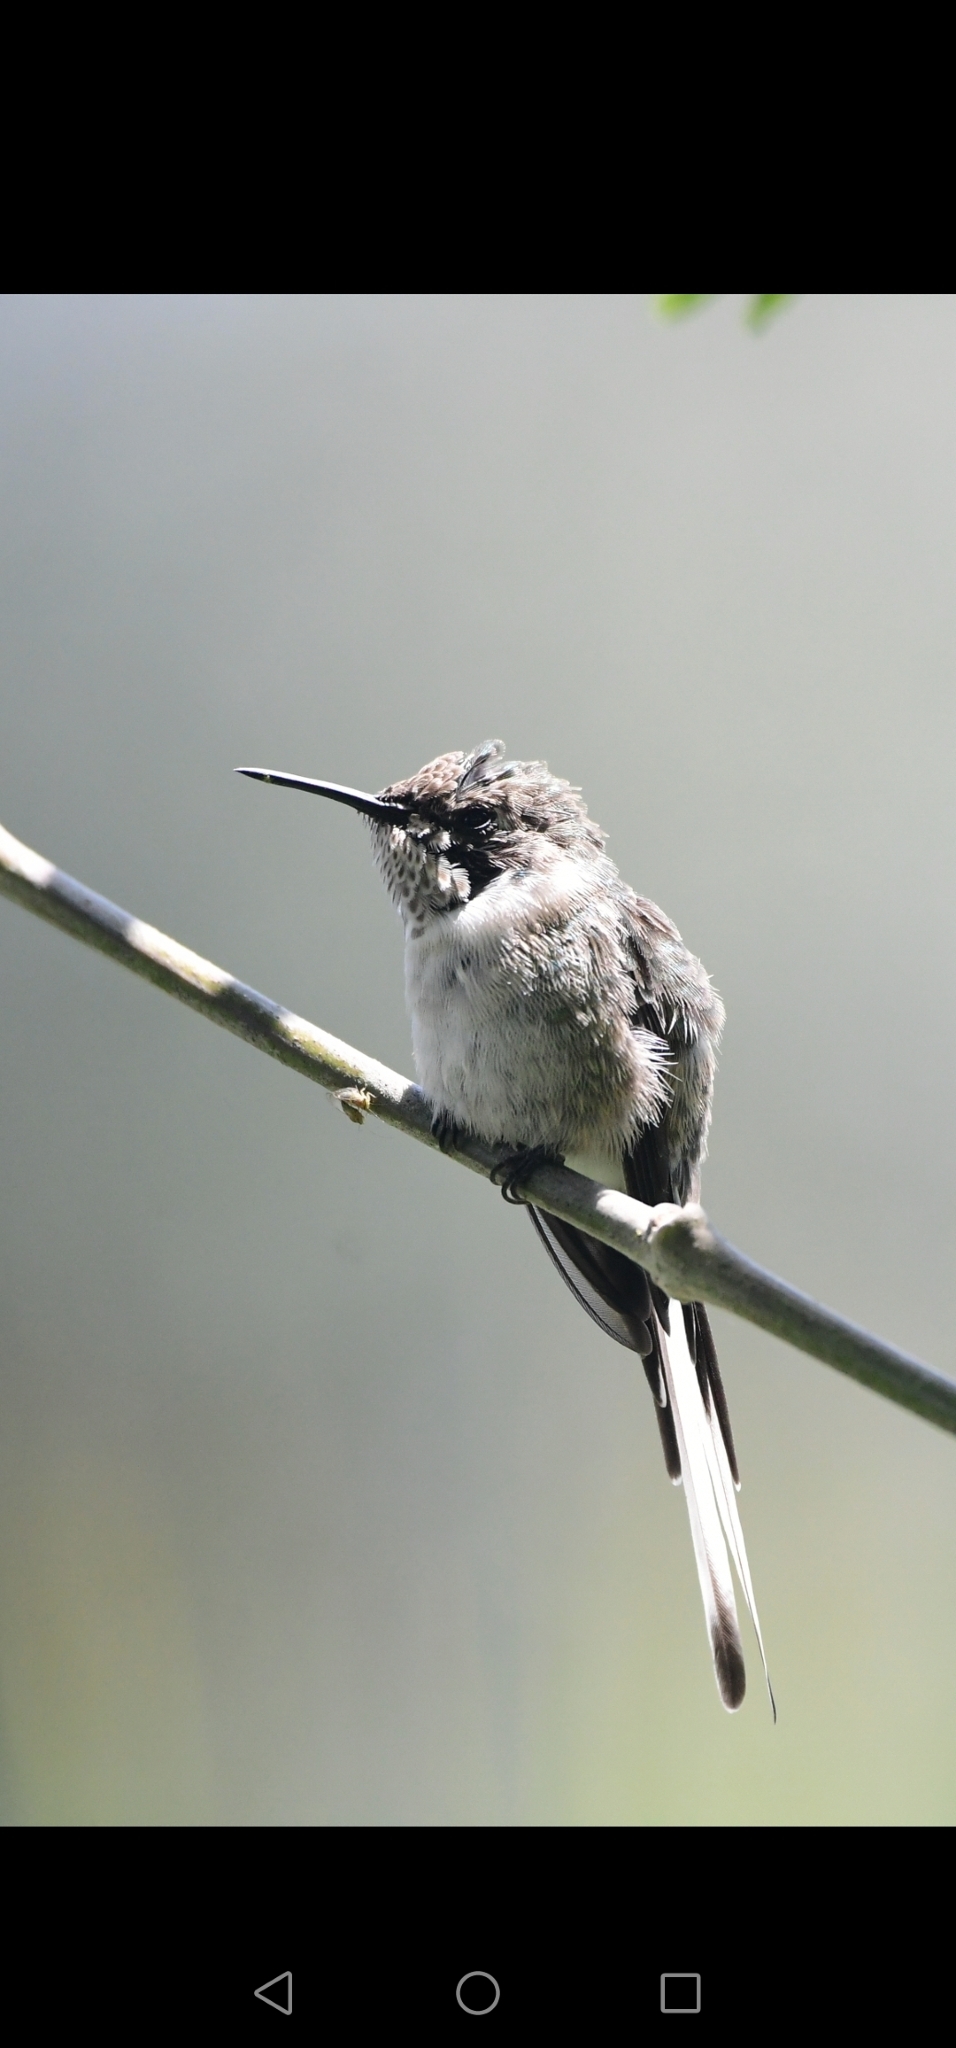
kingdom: Animalia
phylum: Chordata
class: Aves
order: Apodiformes
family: Trochilidae
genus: Thaumastura
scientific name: Thaumastura cora
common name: Peruvian sheartail
